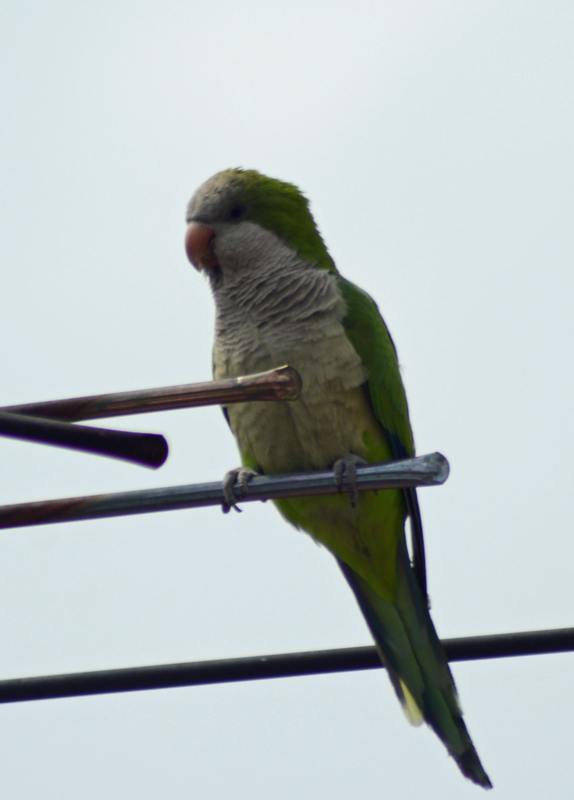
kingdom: Animalia
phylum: Chordata
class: Aves
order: Psittaciformes
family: Psittacidae
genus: Myiopsitta
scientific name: Myiopsitta monachus
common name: Monk parakeet
